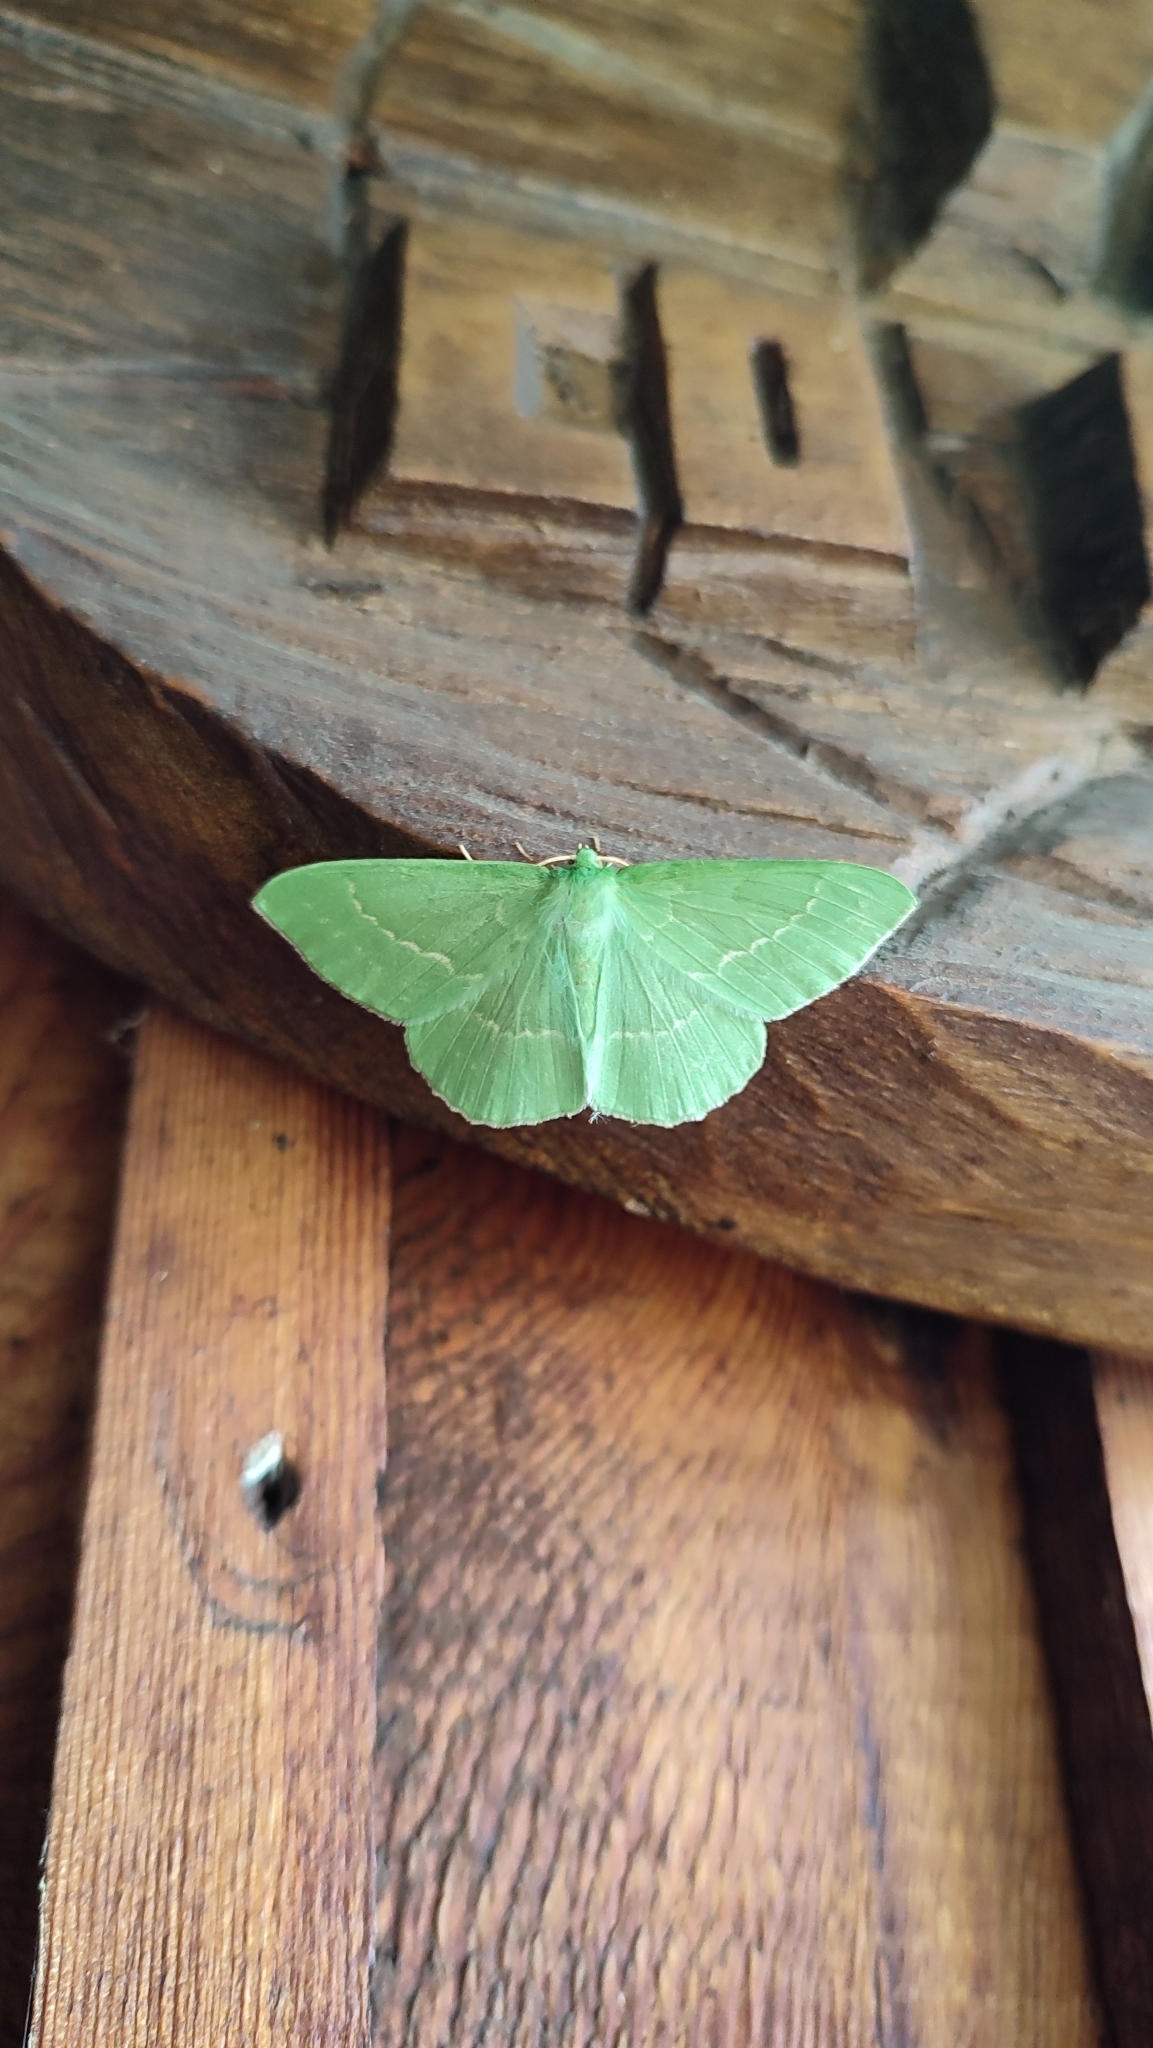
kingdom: Animalia
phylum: Arthropoda
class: Insecta
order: Lepidoptera
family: Geometridae
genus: Geometra
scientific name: Geometra papilionaria
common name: Large emerald
